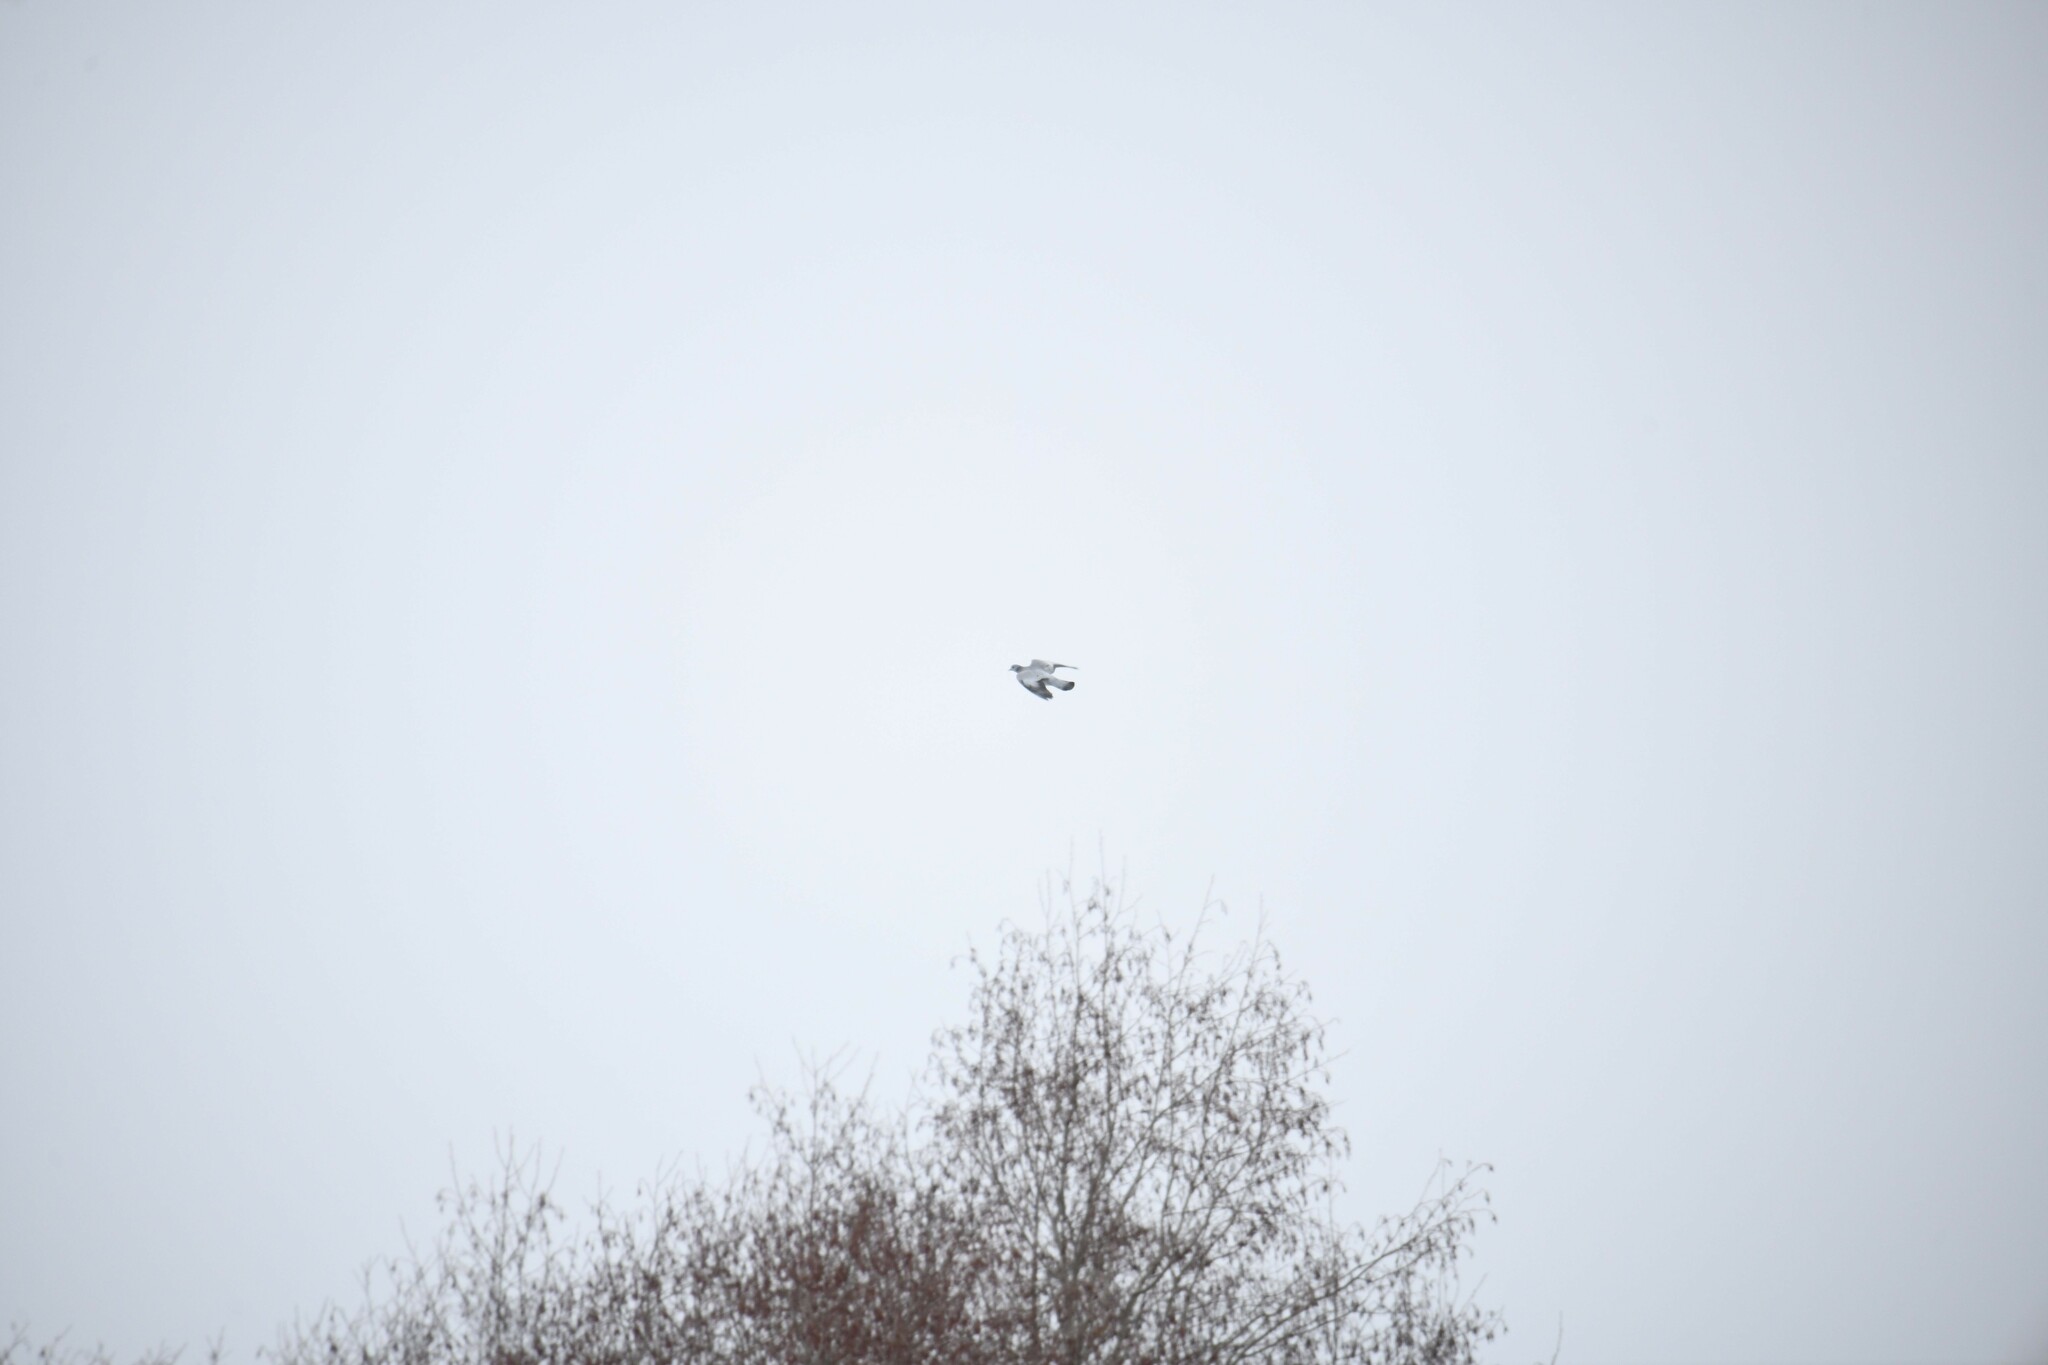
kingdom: Animalia
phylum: Chordata
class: Aves
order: Columbiformes
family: Columbidae
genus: Columba
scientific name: Columba oenas
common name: Stock dove
